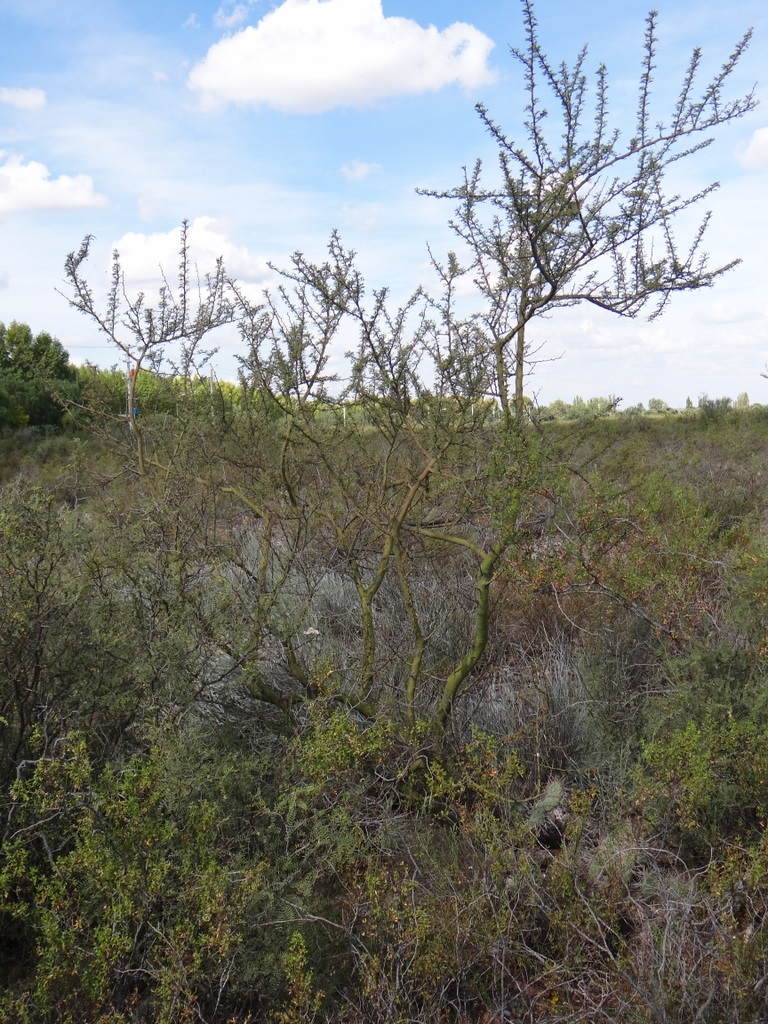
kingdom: Plantae
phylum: Tracheophyta
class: Magnoliopsida
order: Fabales
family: Fabaceae
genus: Parkinsonia
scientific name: Parkinsonia praecox
